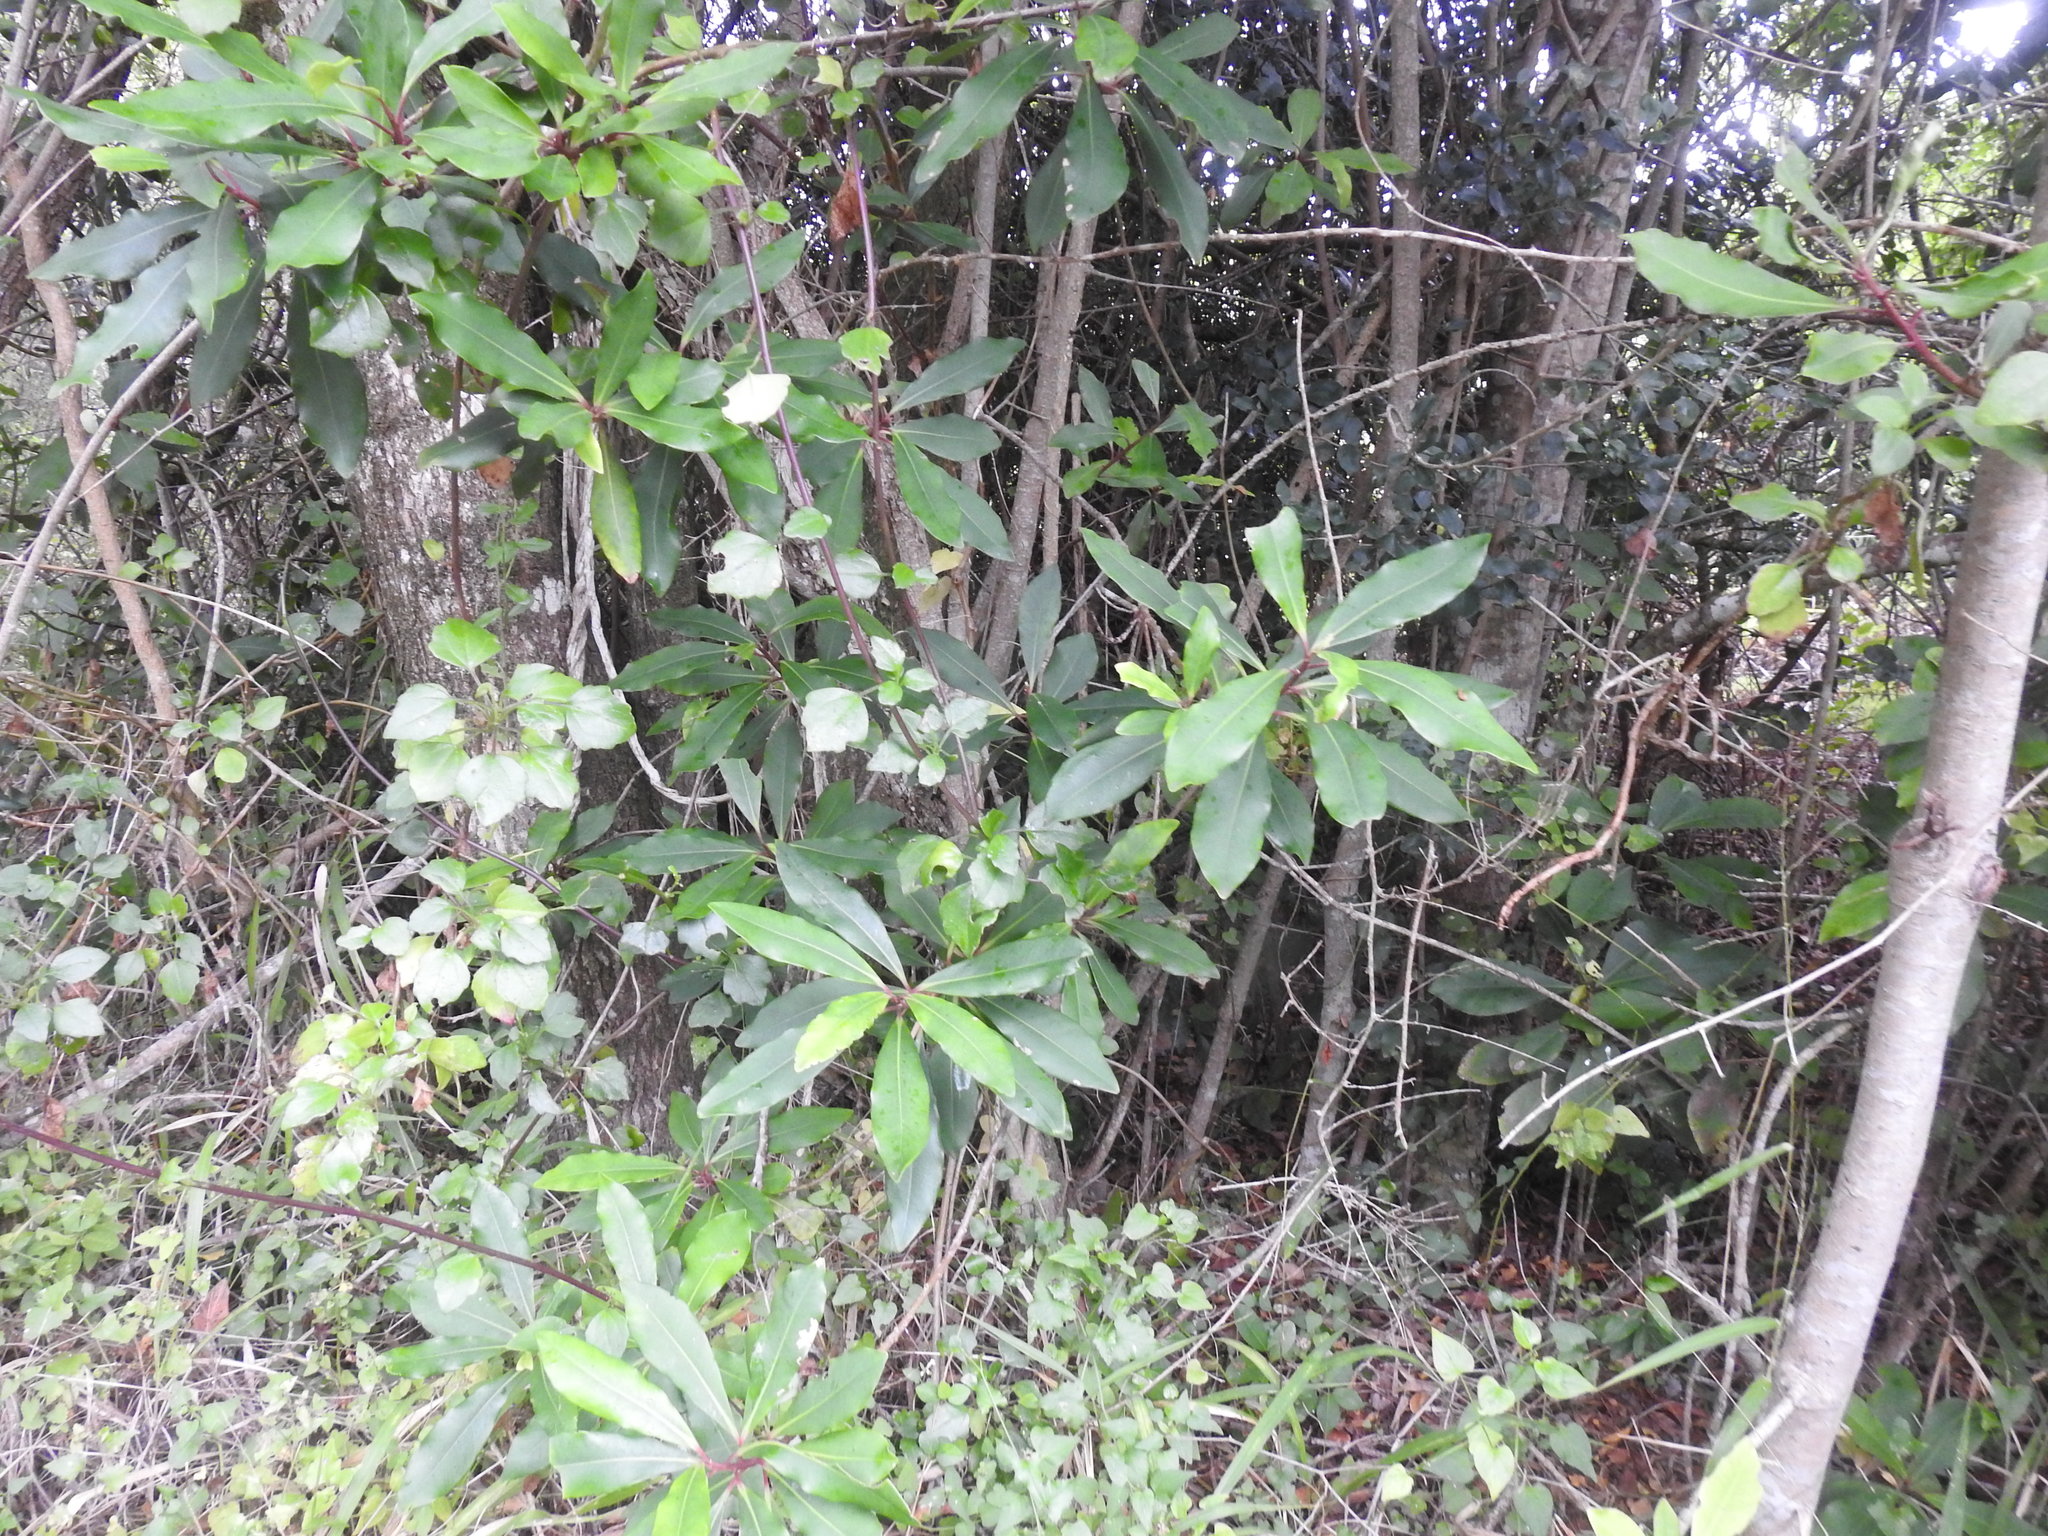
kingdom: Plantae
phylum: Tracheophyta
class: Magnoliopsida
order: Ericales
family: Primulaceae
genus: Myrsine
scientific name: Myrsine melanophloeos
